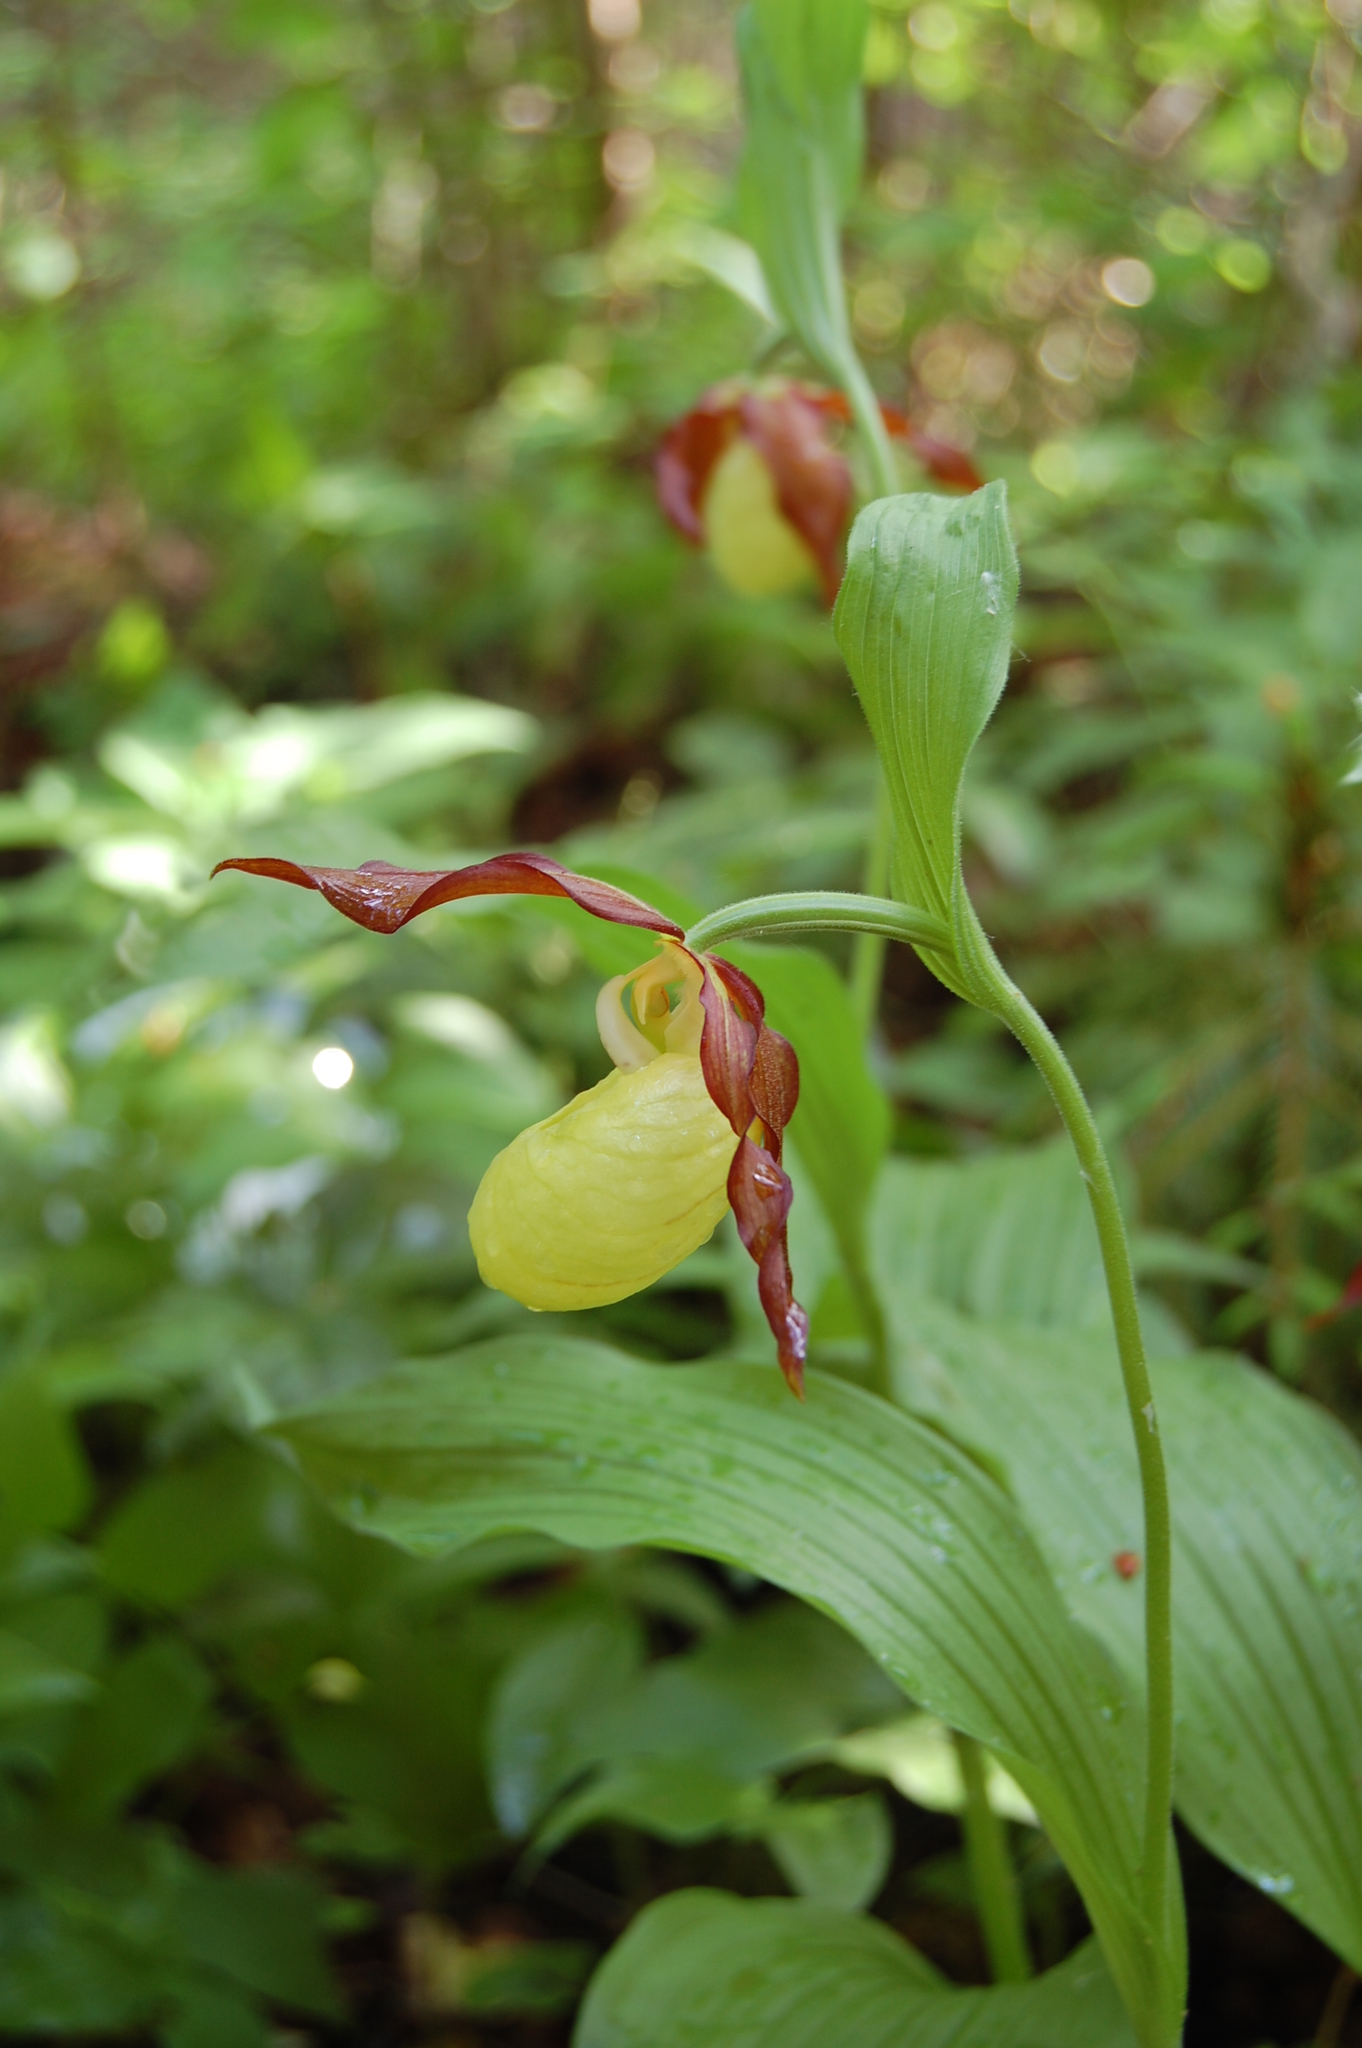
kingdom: Plantae
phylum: Tracheophyta
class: Liliopsida
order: Asparagales
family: Orchidaceae
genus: Cypripedium
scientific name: Cypripedium calceolus
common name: Lady's-slipper
